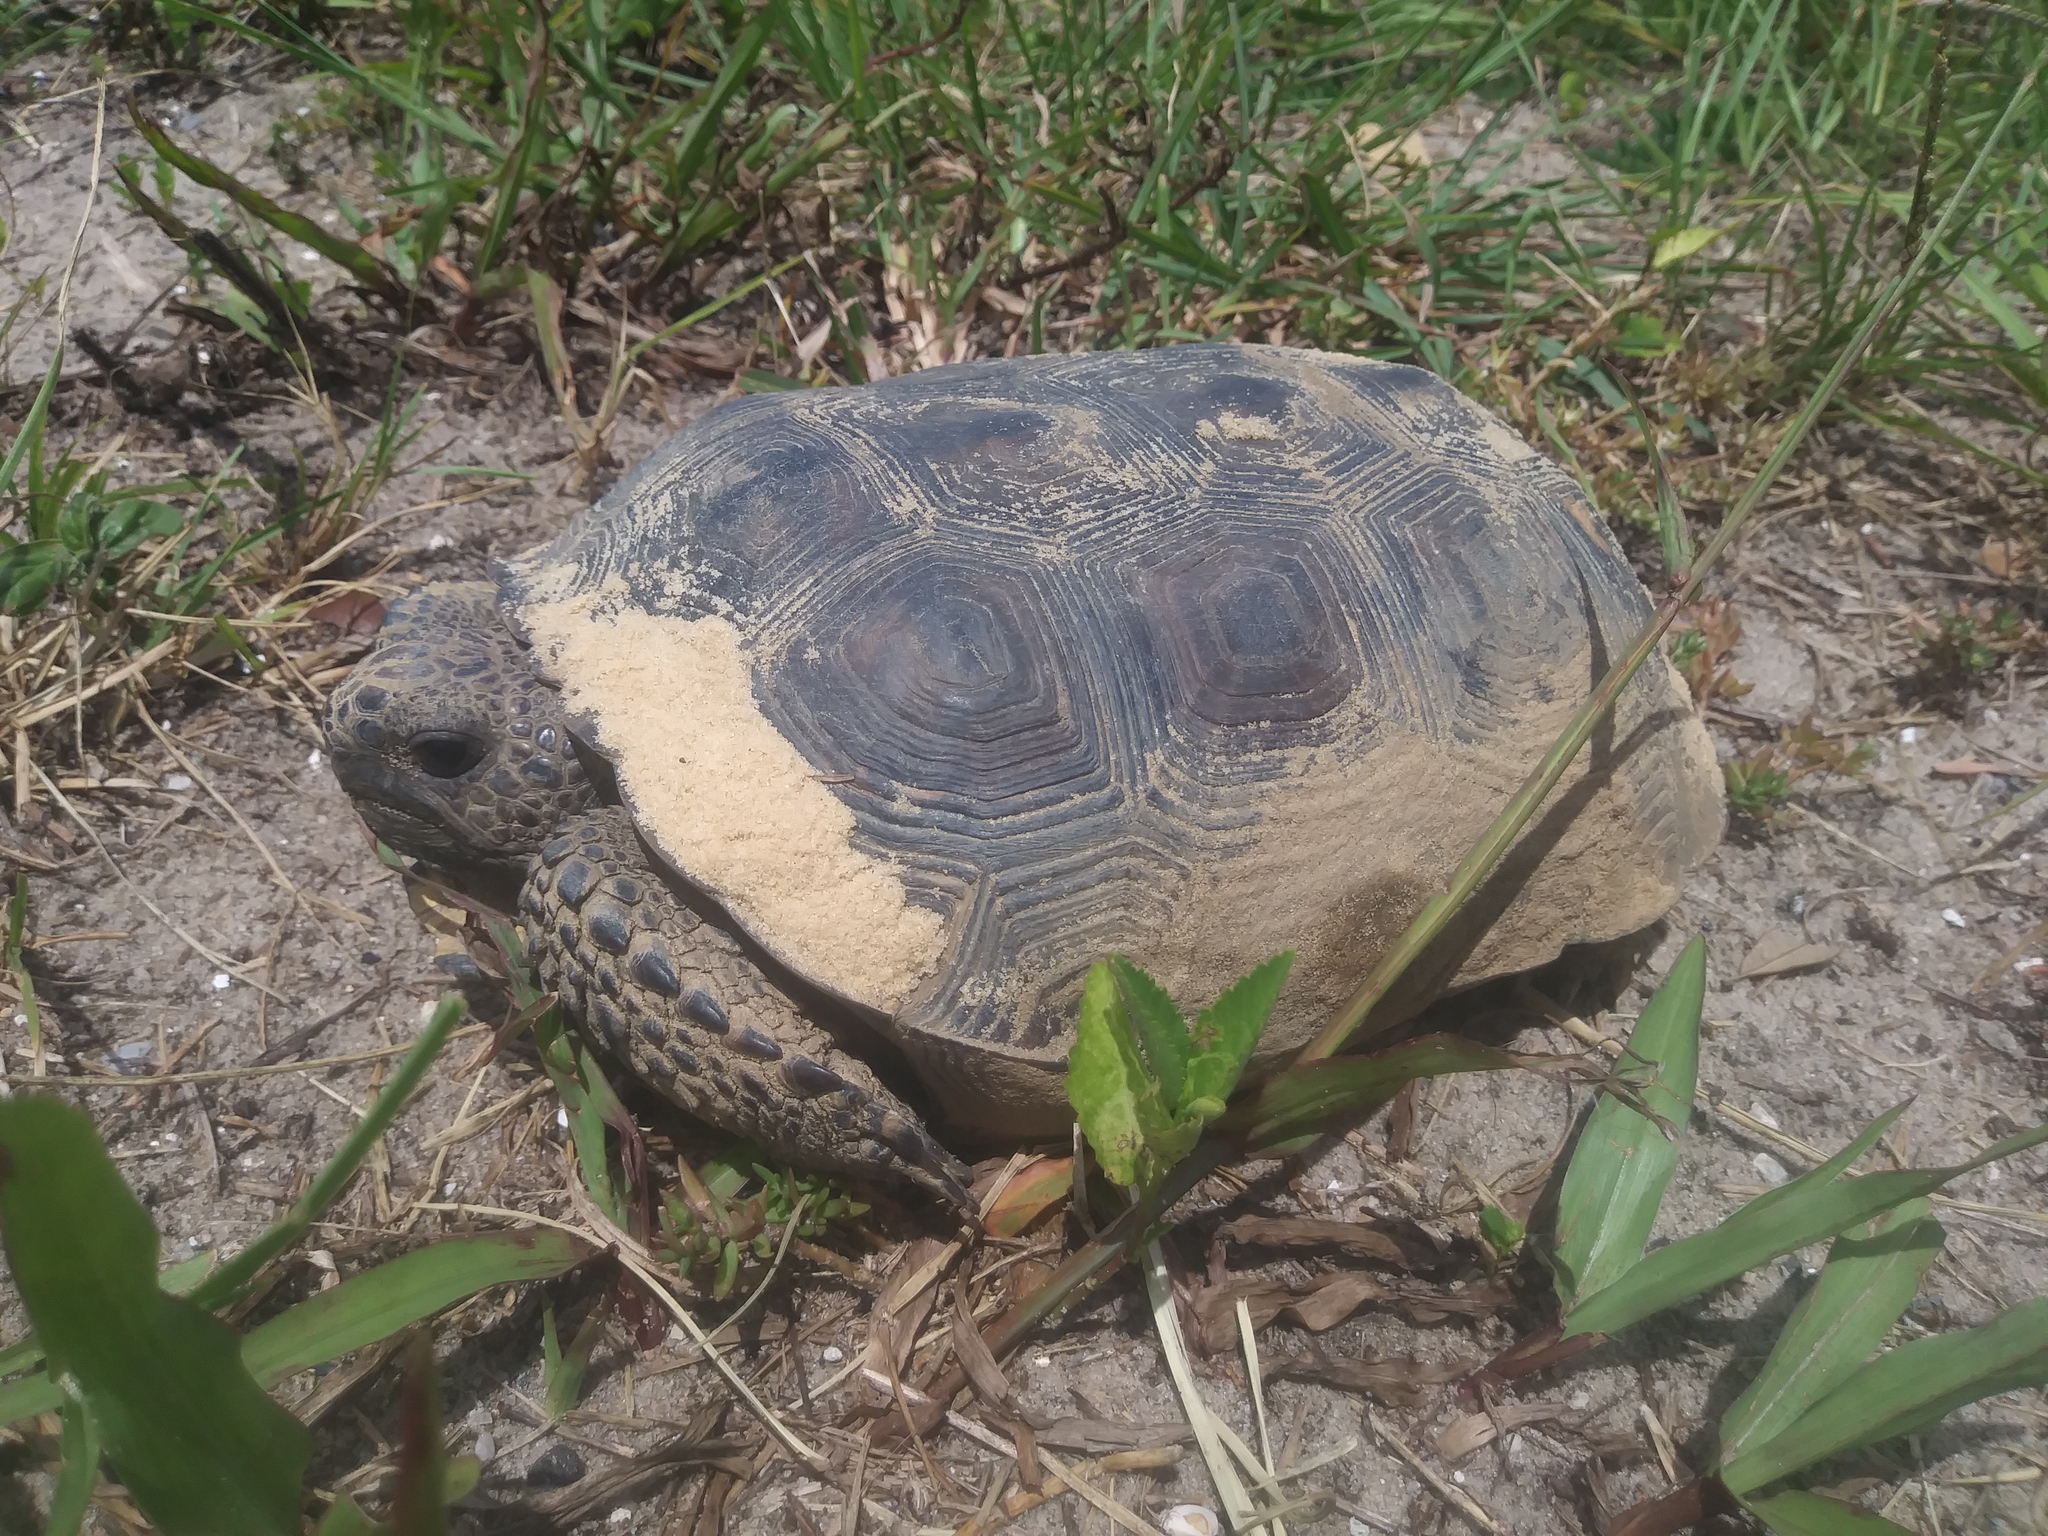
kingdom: Animalia
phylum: Chordata
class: Testudines
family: Testudinidae
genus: Gopherus
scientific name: Gopherus polyphemus
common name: Florida gopher tortoise
